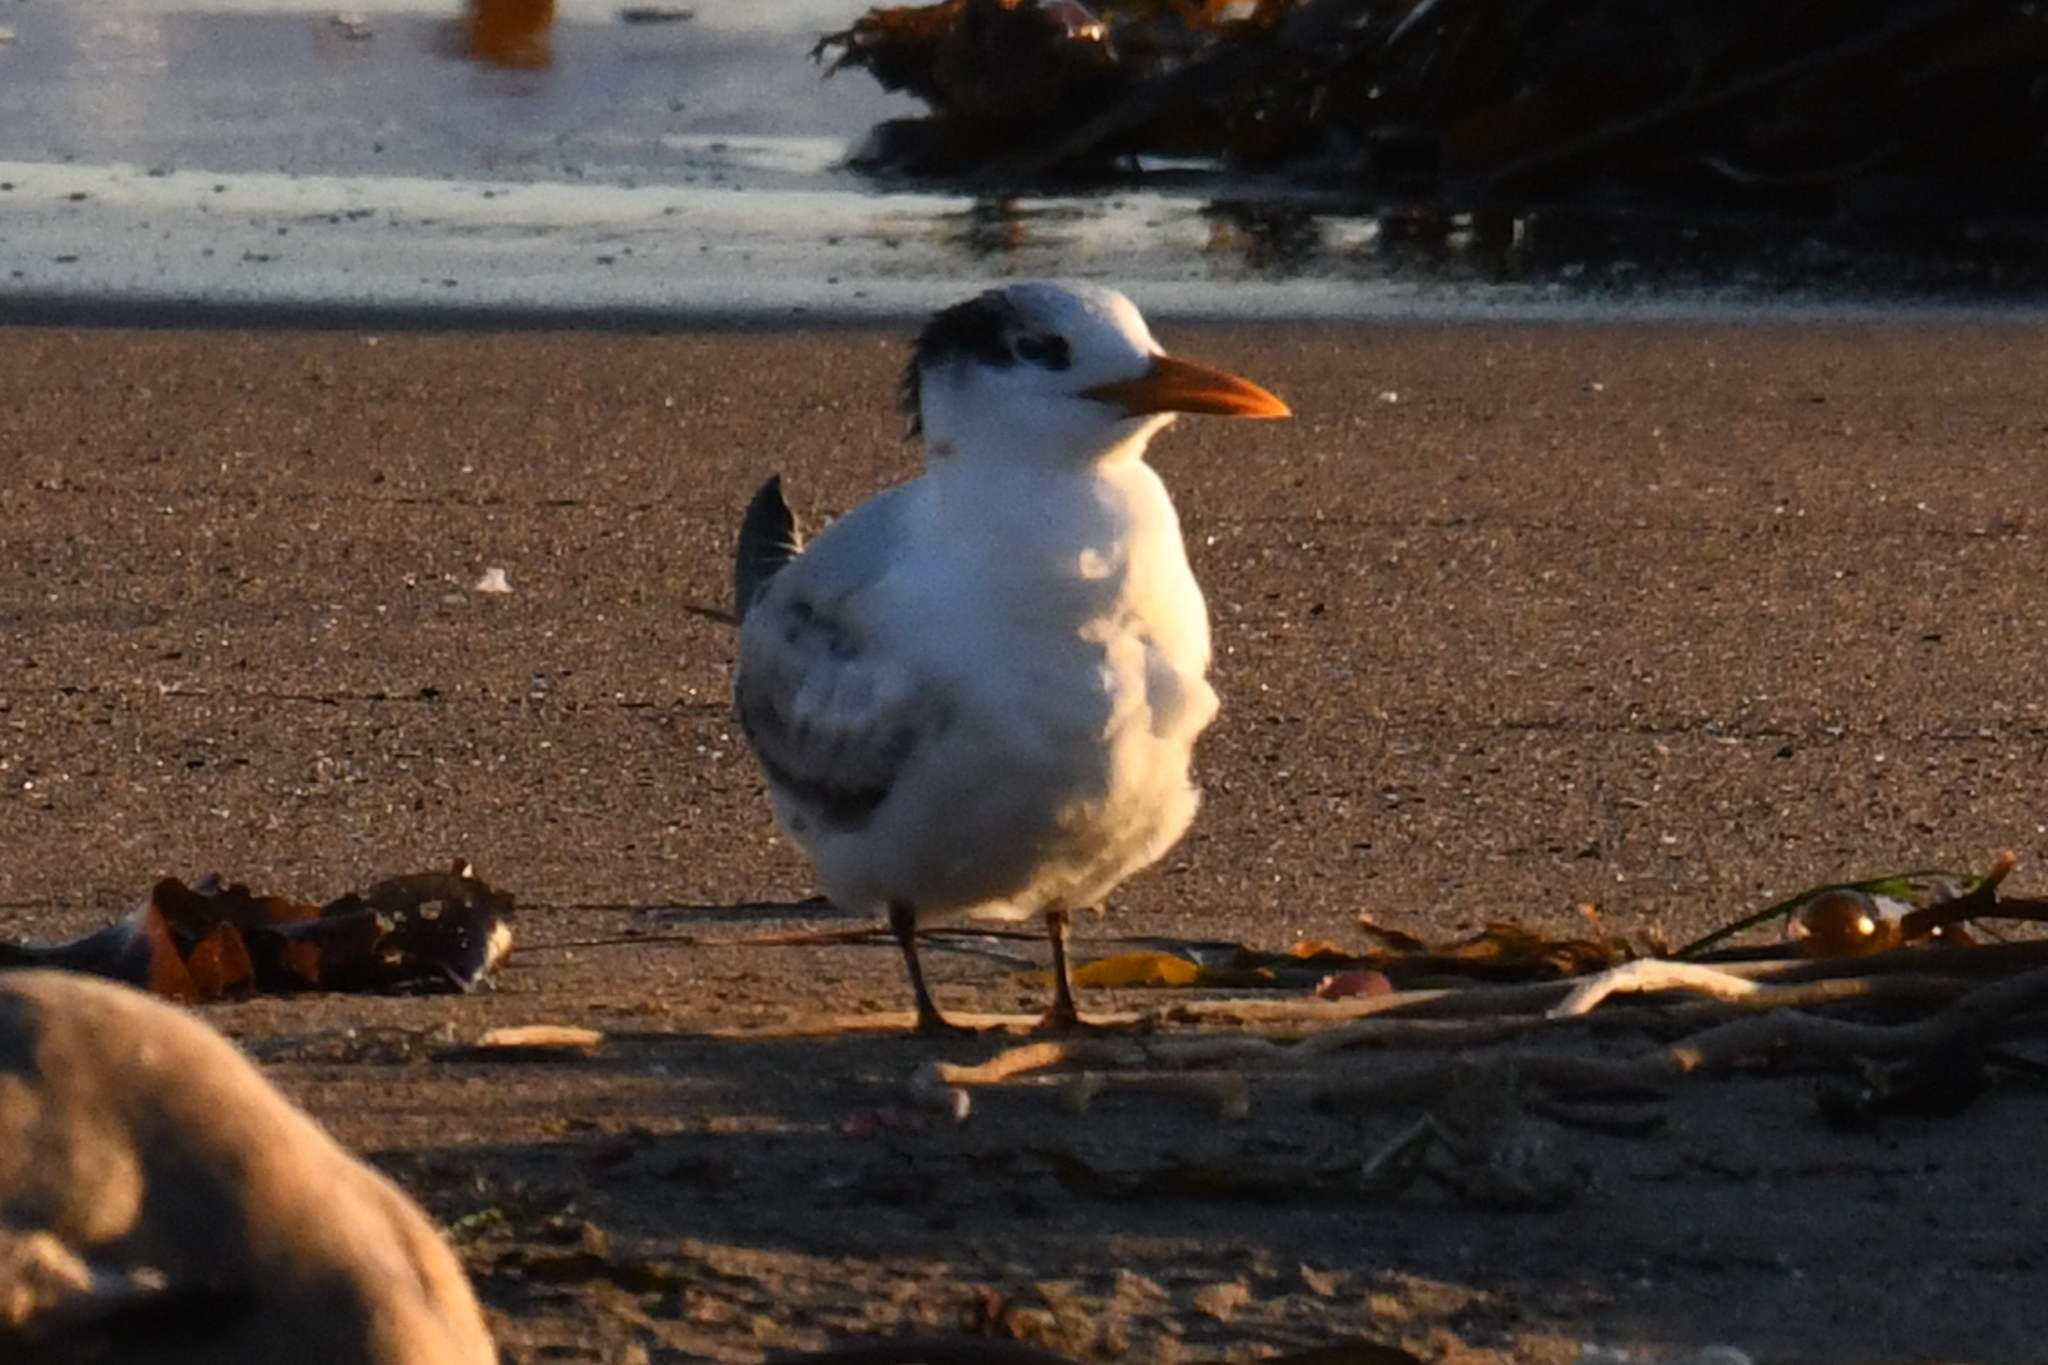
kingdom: Animalia
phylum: Chordata
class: Aves
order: Charadriiformes
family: Laridae
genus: Thalasseus
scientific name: Thalasseus maximus
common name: Royal tern
